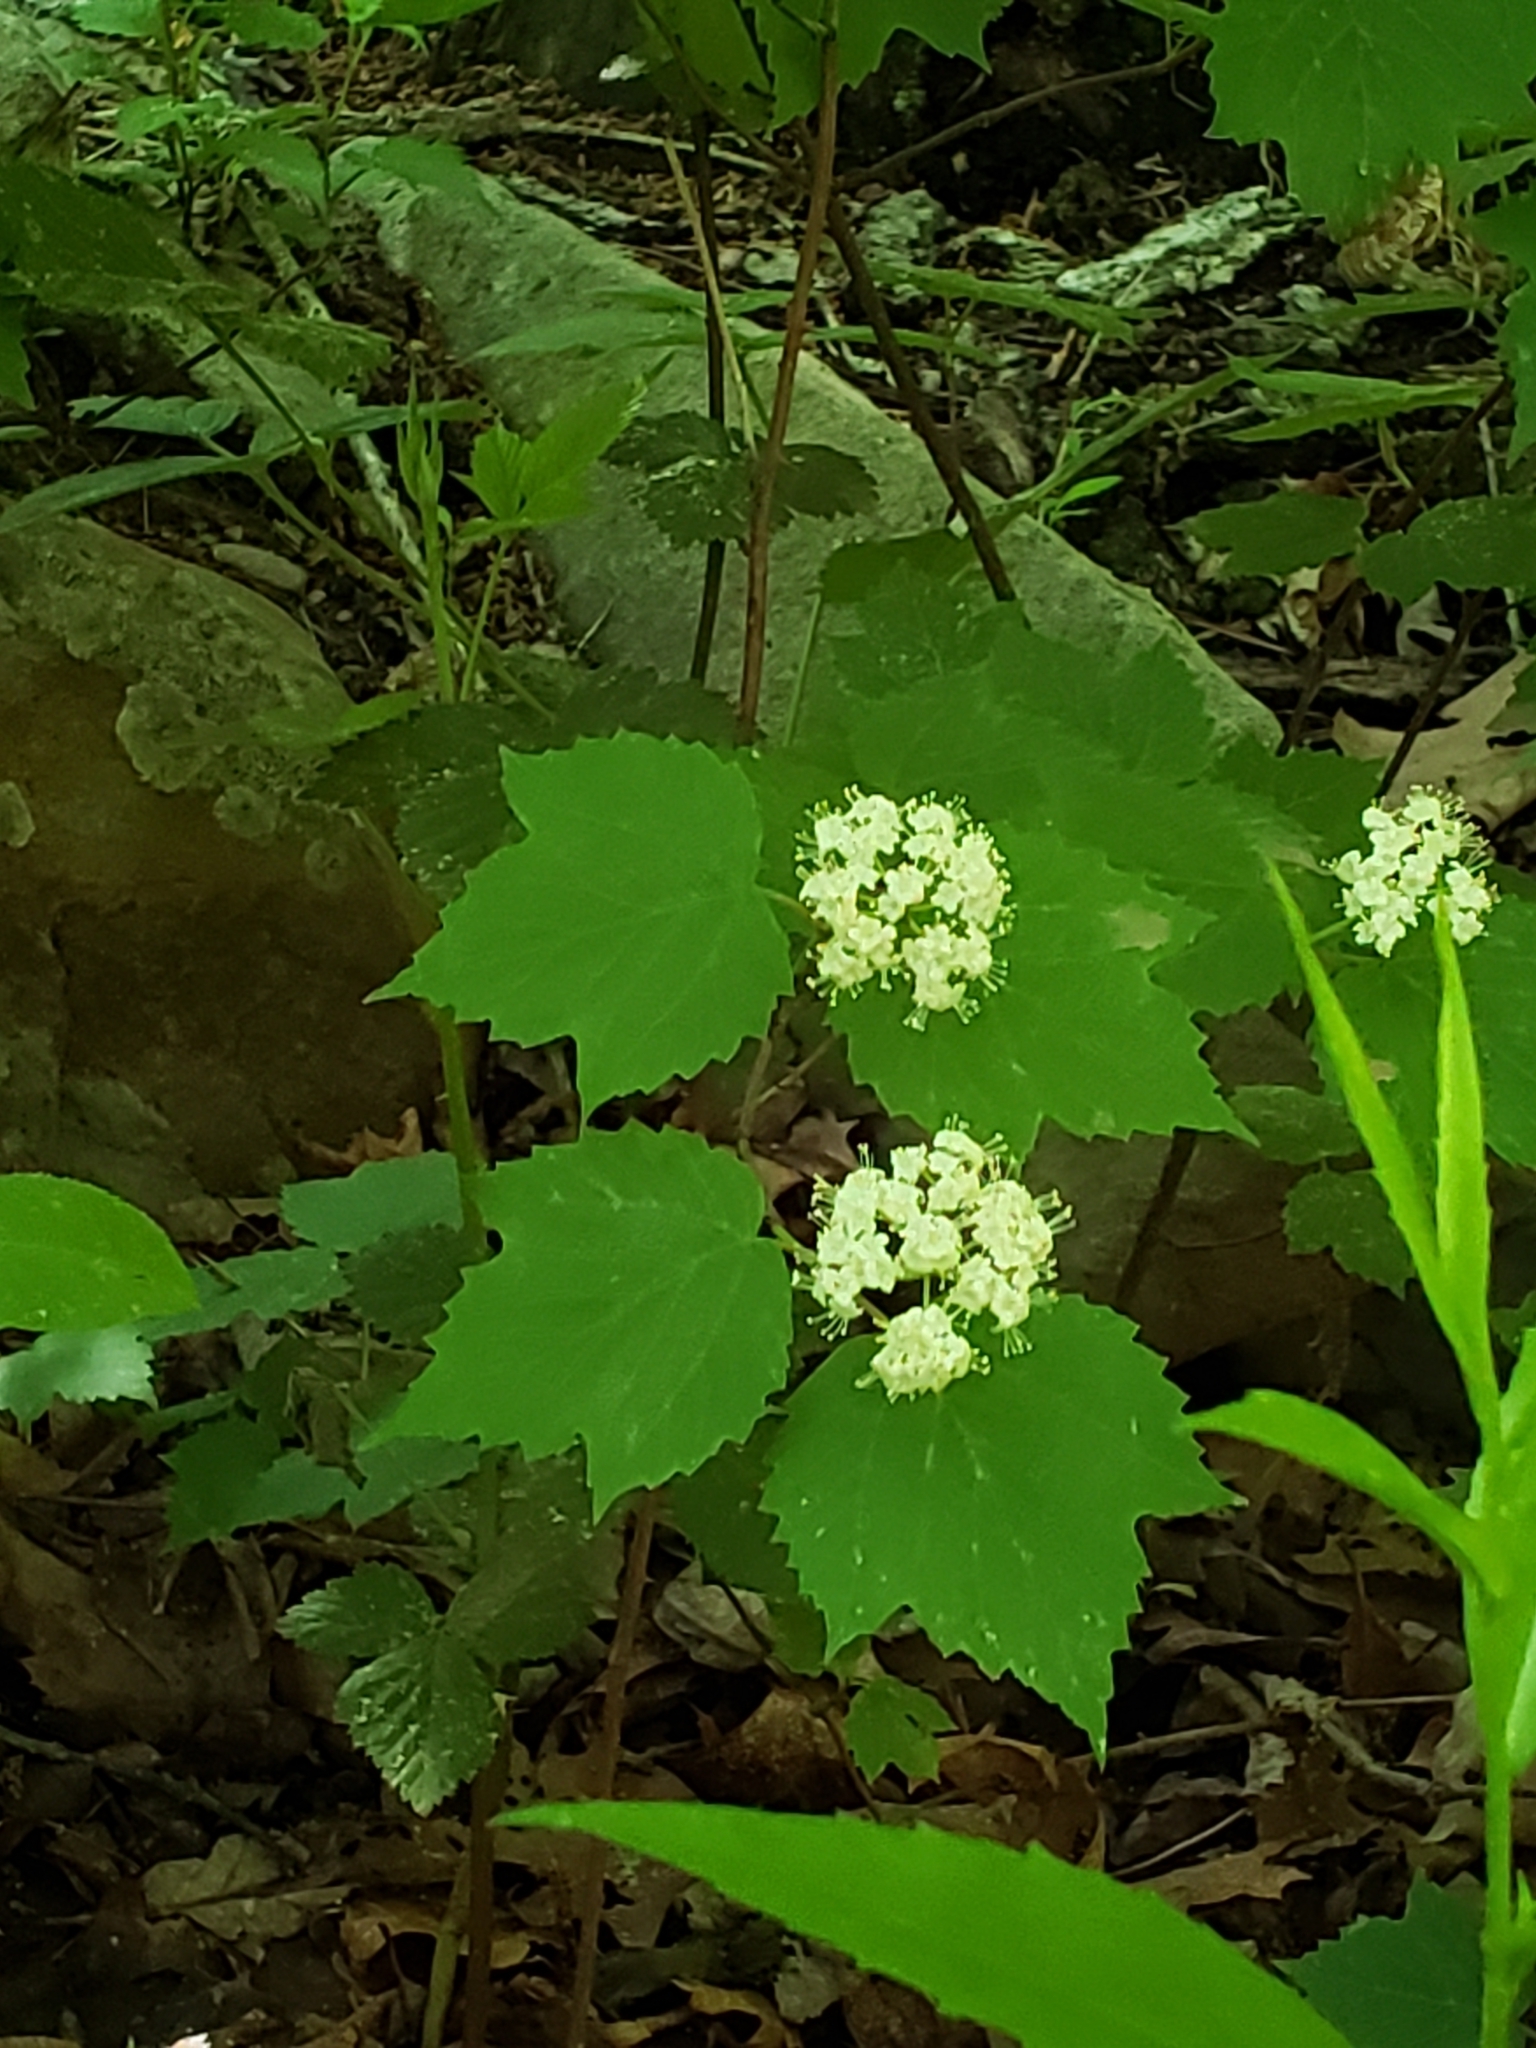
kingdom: Plantae
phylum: Tracheophyta
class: Magnoliopsida
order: Dipsacales
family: Viburnaceae
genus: Viburnum
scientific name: Viburnum acerifolium
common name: Dockmackie
